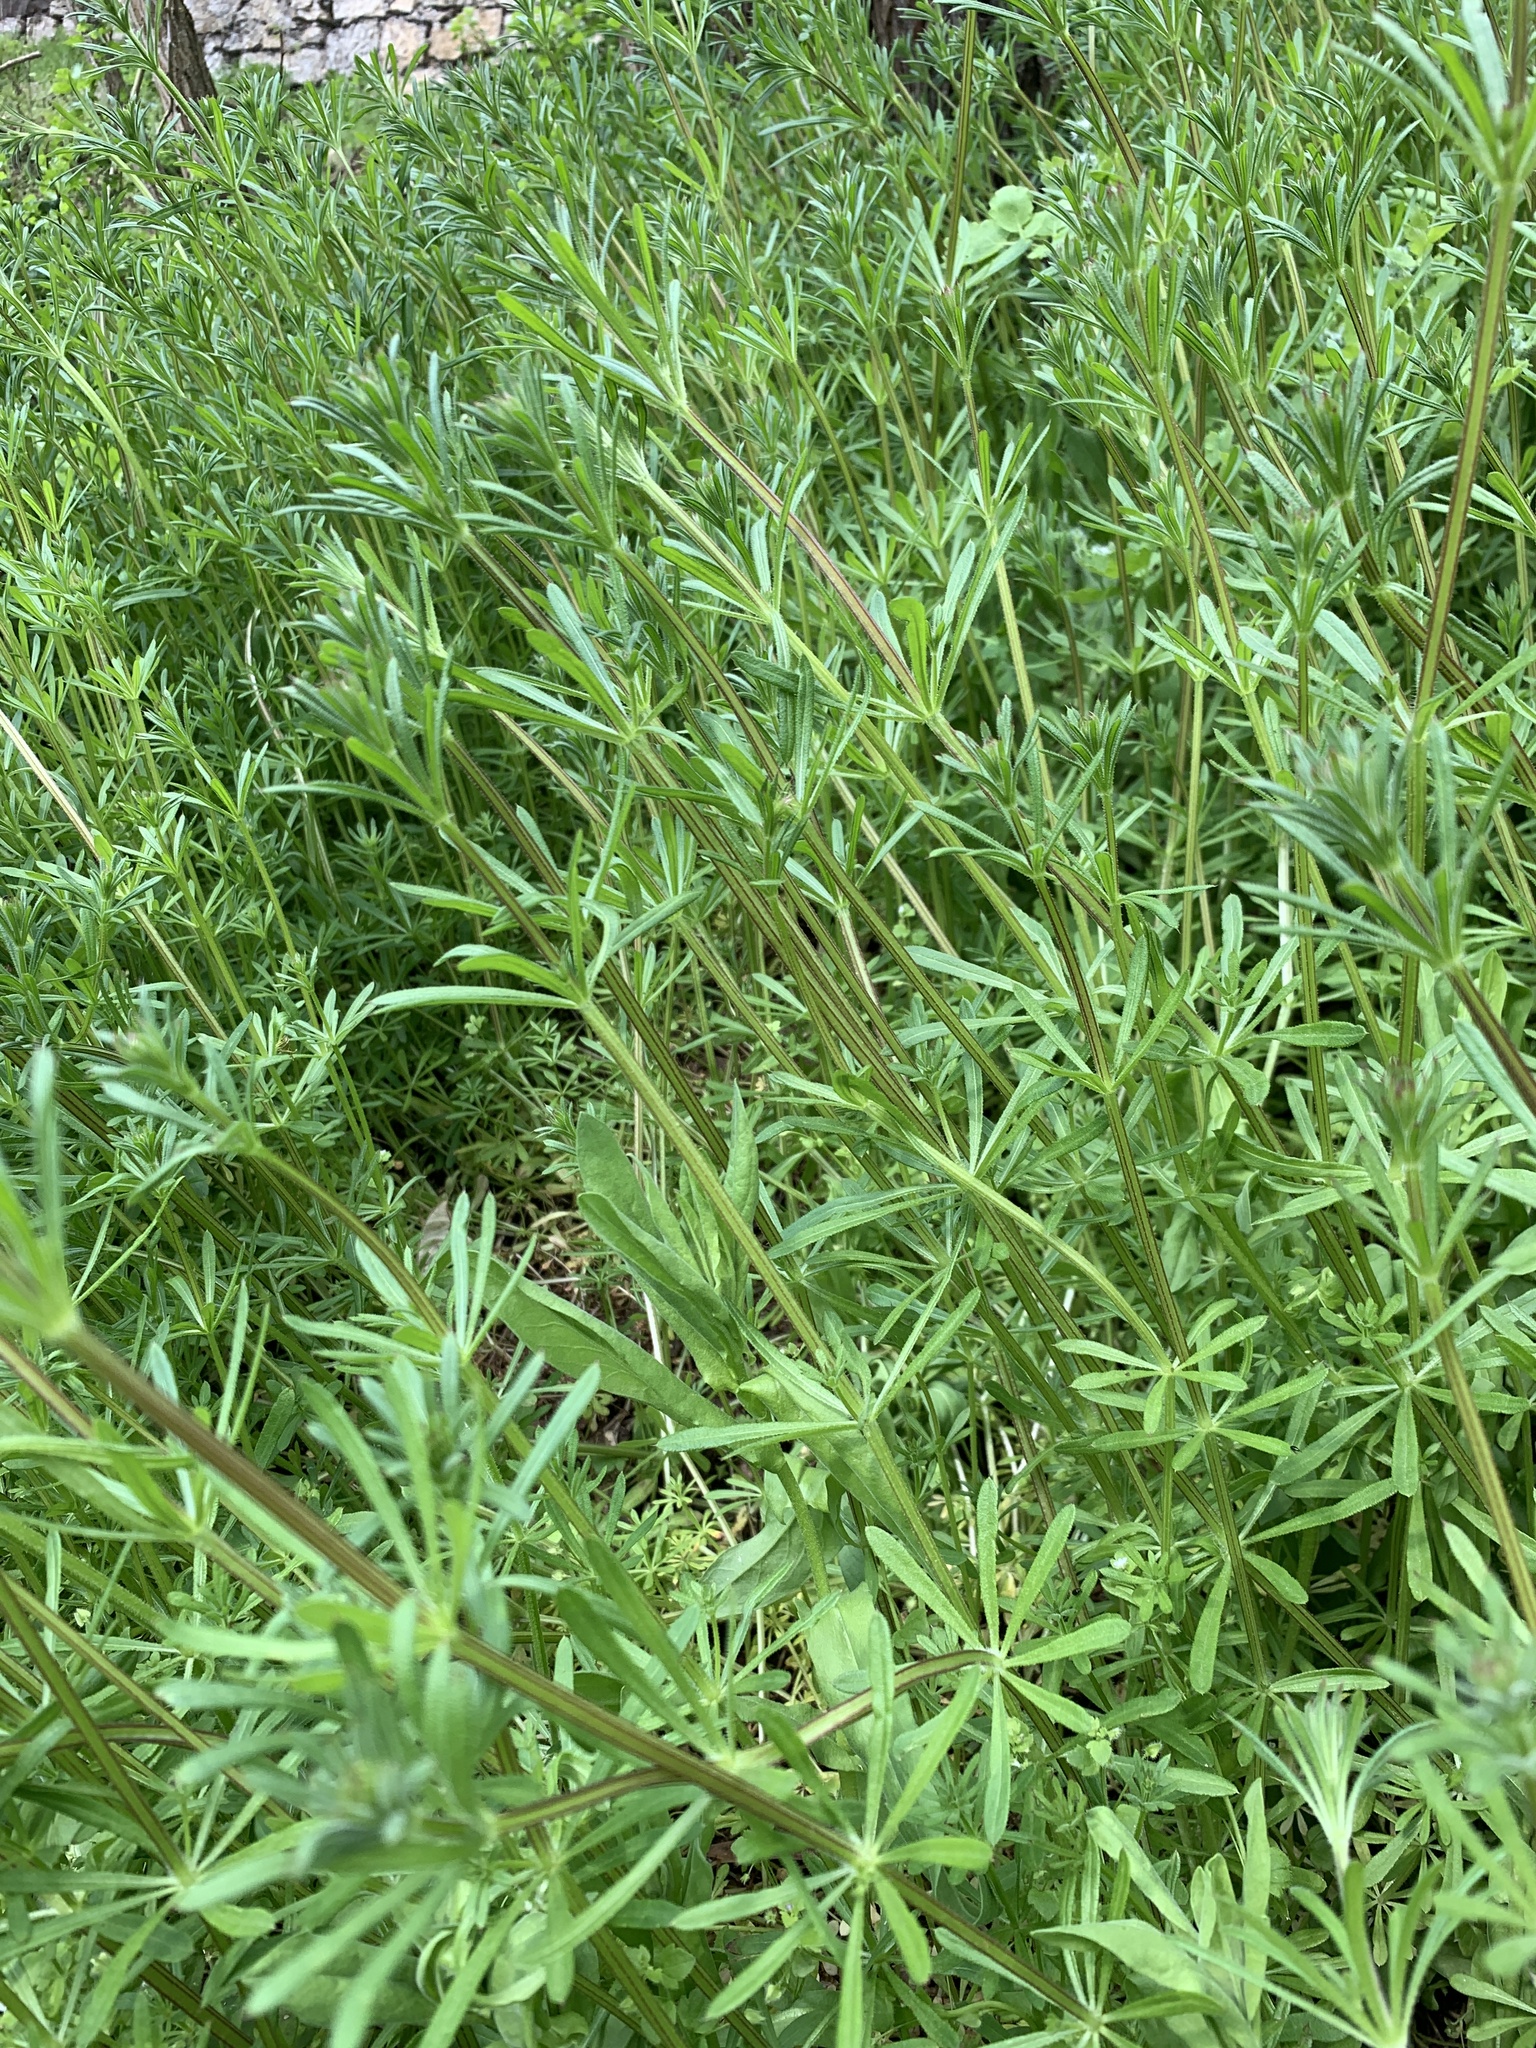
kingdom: Plantae
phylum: Tracheophyta
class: Magnoliopsida
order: Gentianales
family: Rubiaceae
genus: Galium
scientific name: Galium aparine
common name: Cleavers
